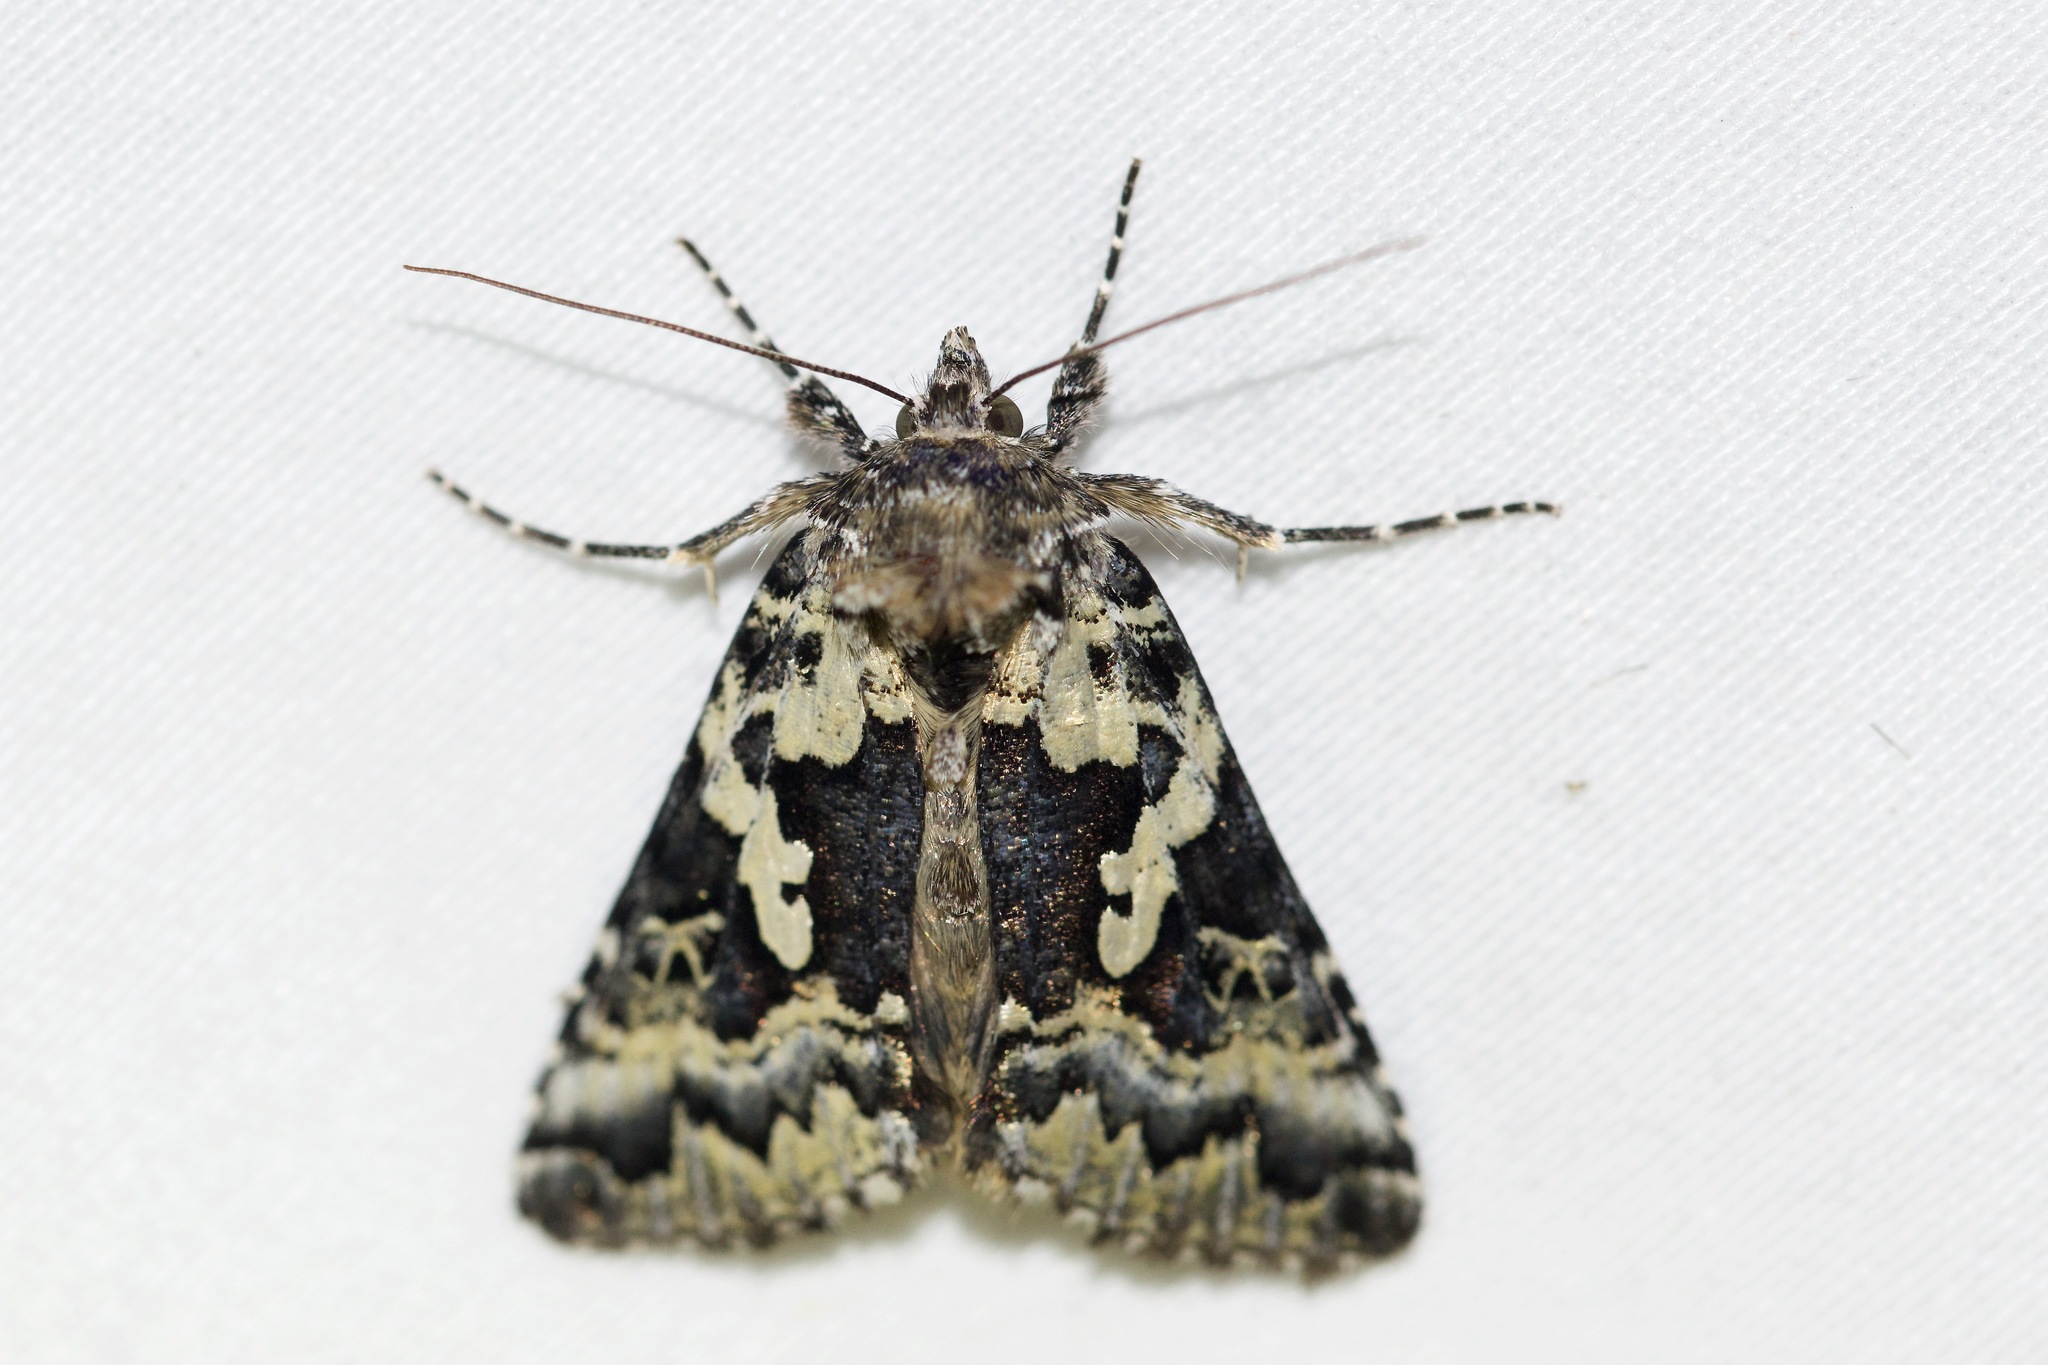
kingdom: Animalia
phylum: Arthropoda
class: Insecta
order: Lepidoptera
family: Noctuidae
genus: Syngrapha
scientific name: Syngrapha rectangula
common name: Angulated cutworm
